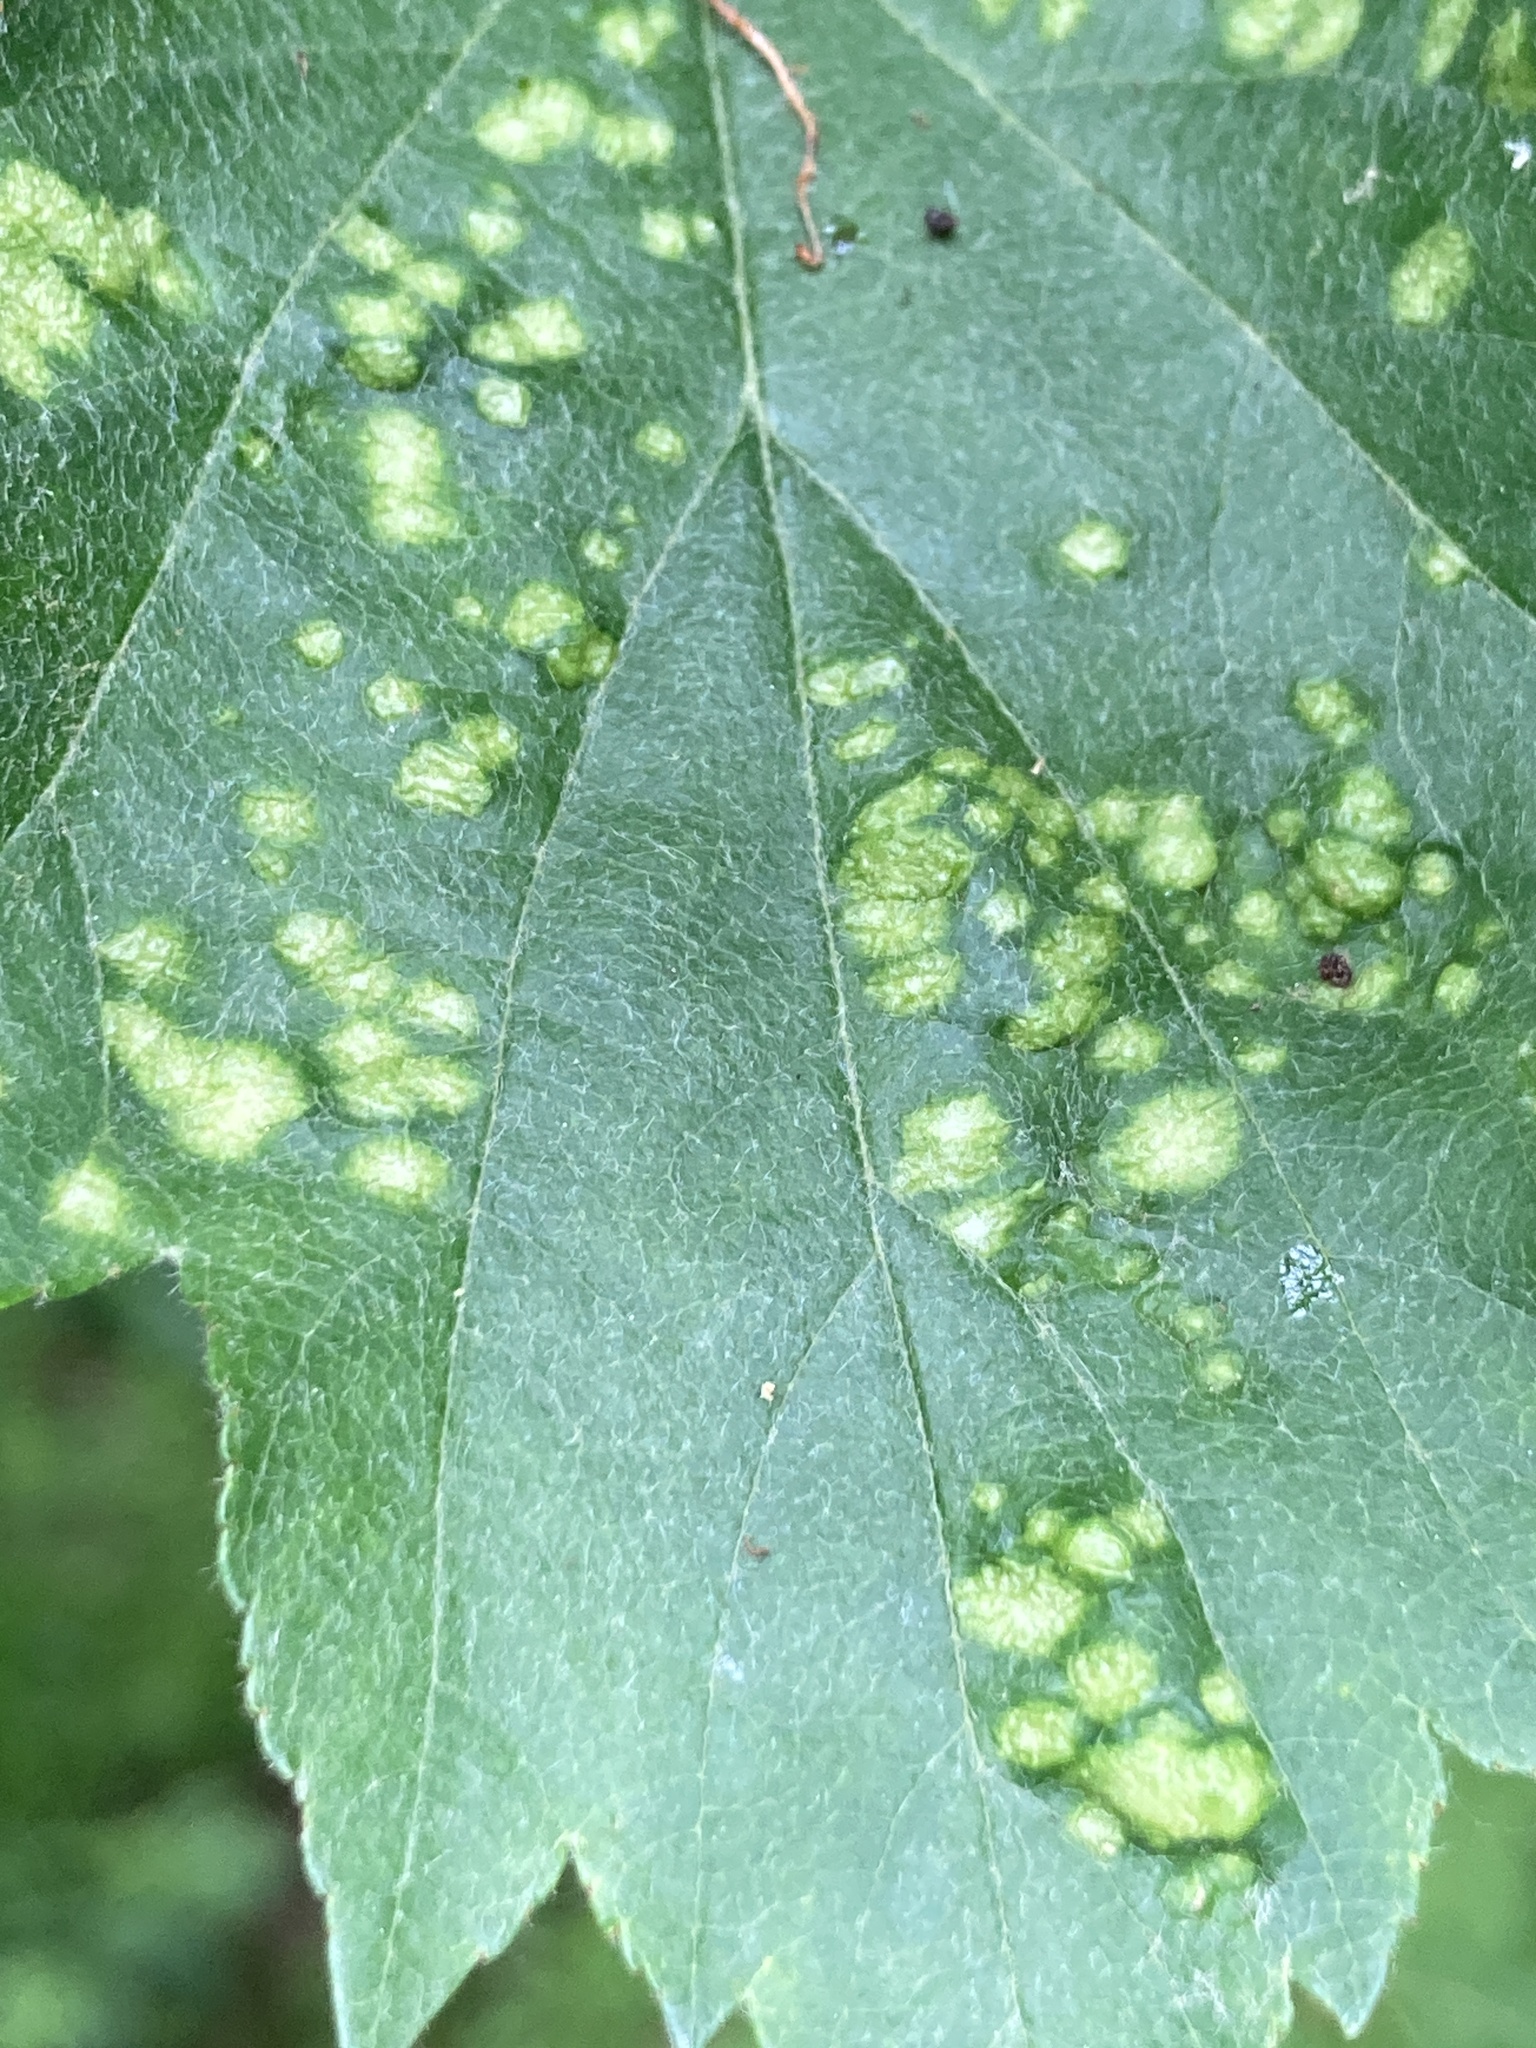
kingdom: Animalia
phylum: Arthropoda
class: Arachnida
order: Trombidiformes
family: Eriophyidae
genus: Eriophyes
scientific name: Eriophyes torminalis
